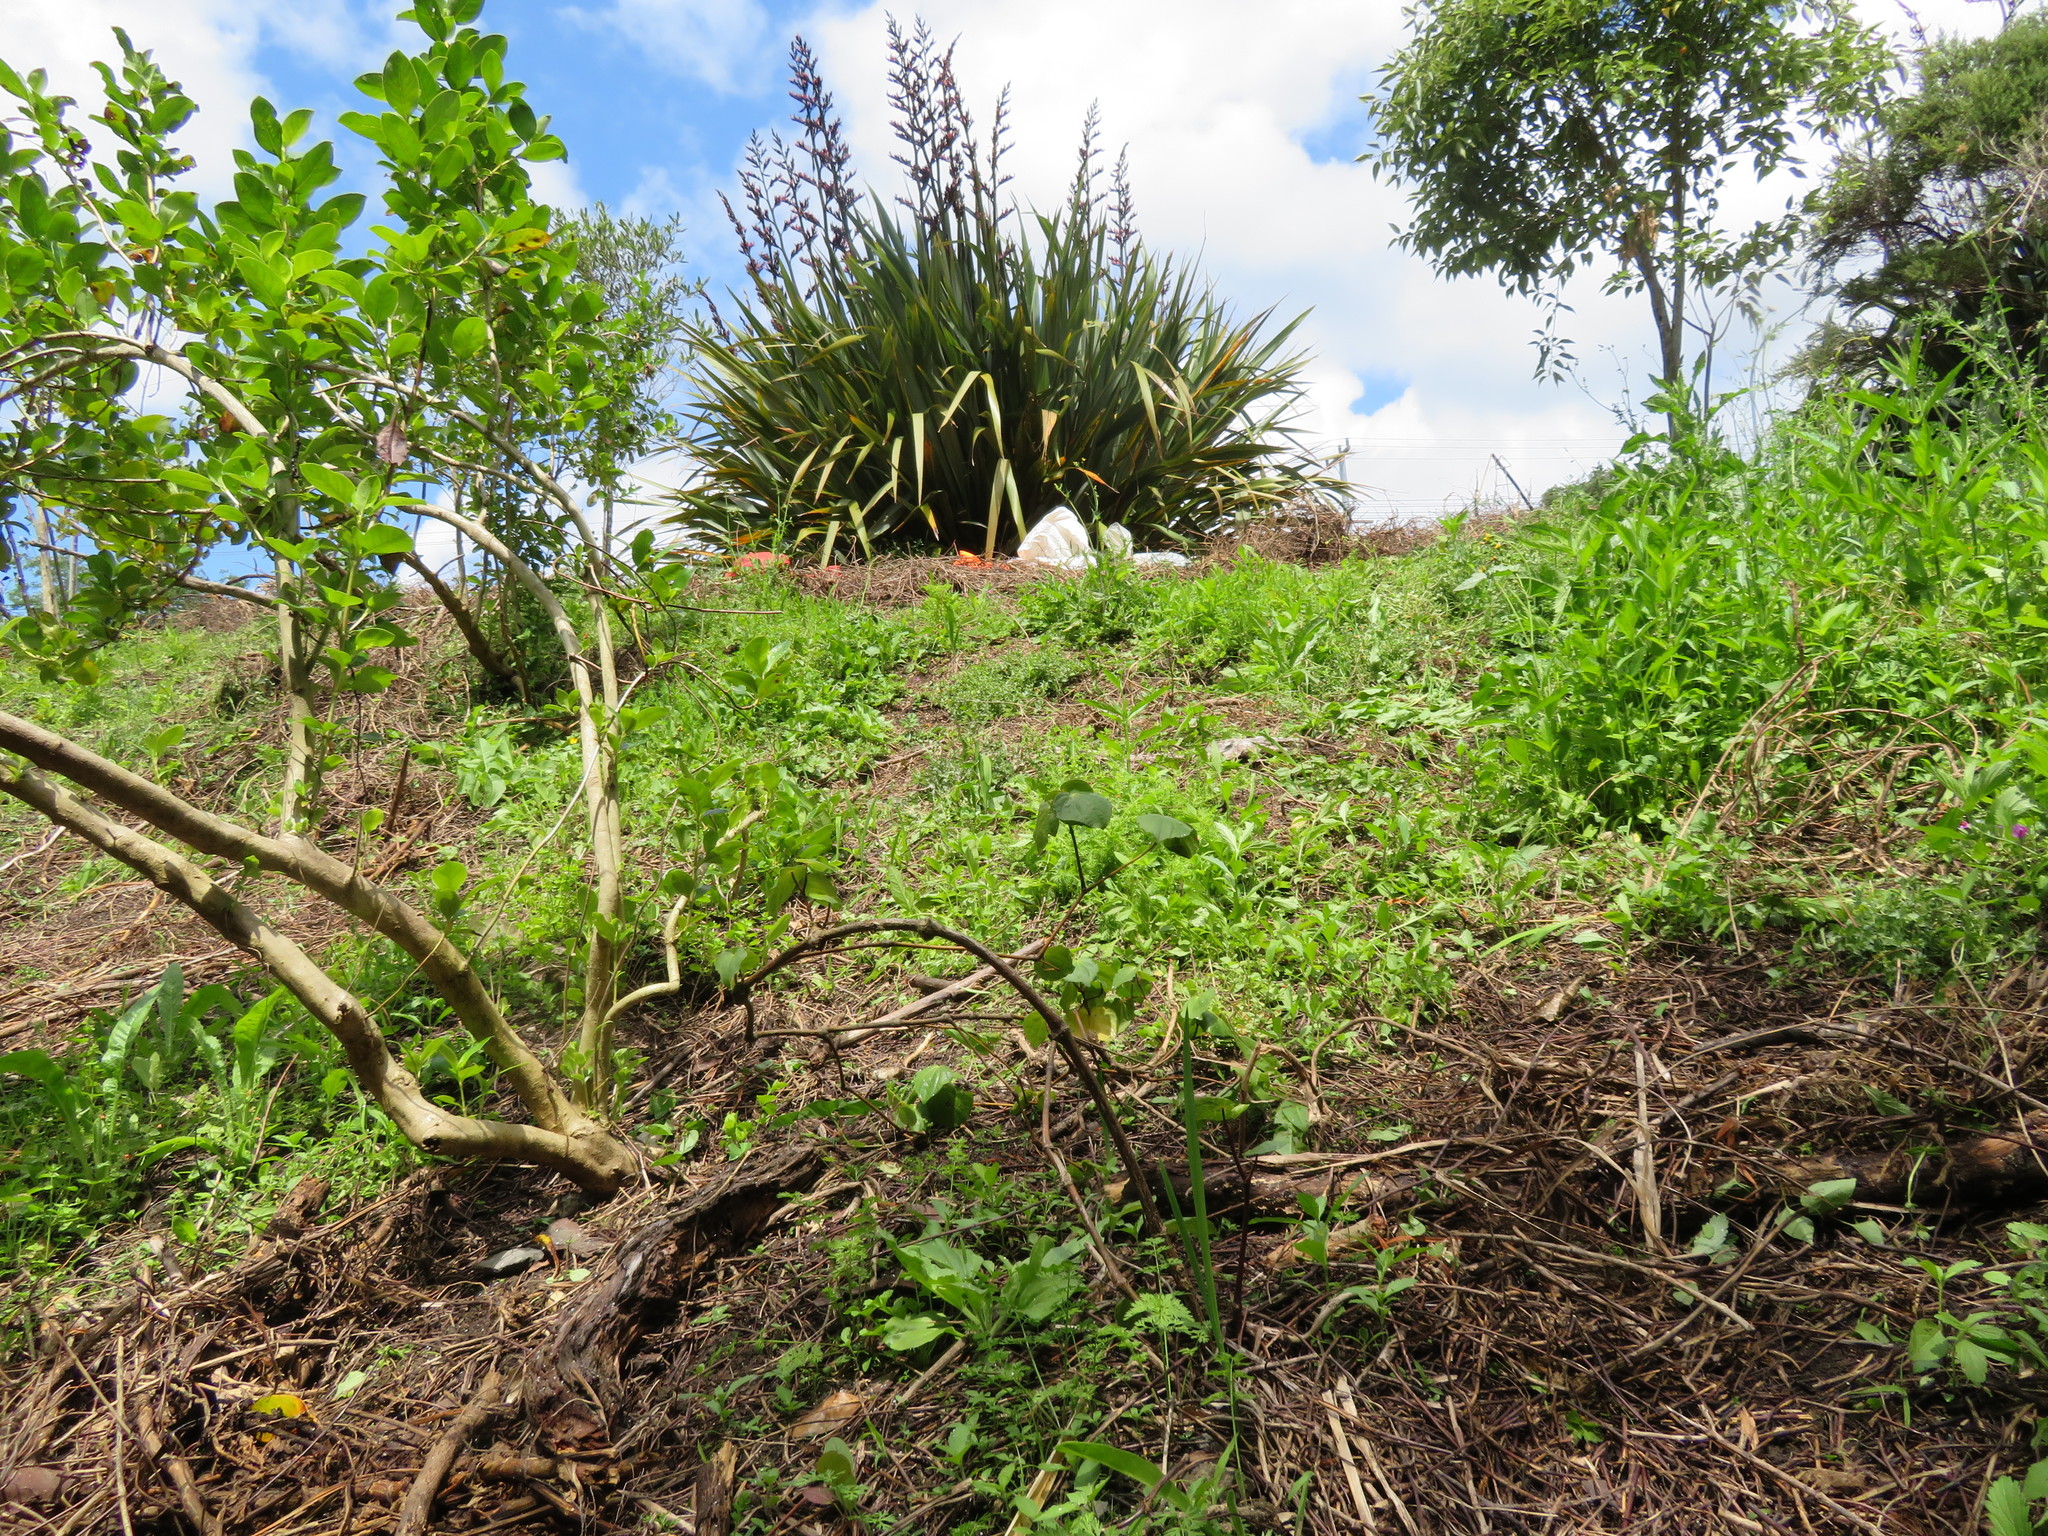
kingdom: Plantae
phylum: Tracheophyta
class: Magnoliopsida
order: Piperales
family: Piperaceae
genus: Macropiper
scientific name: Macropiper excelsum
